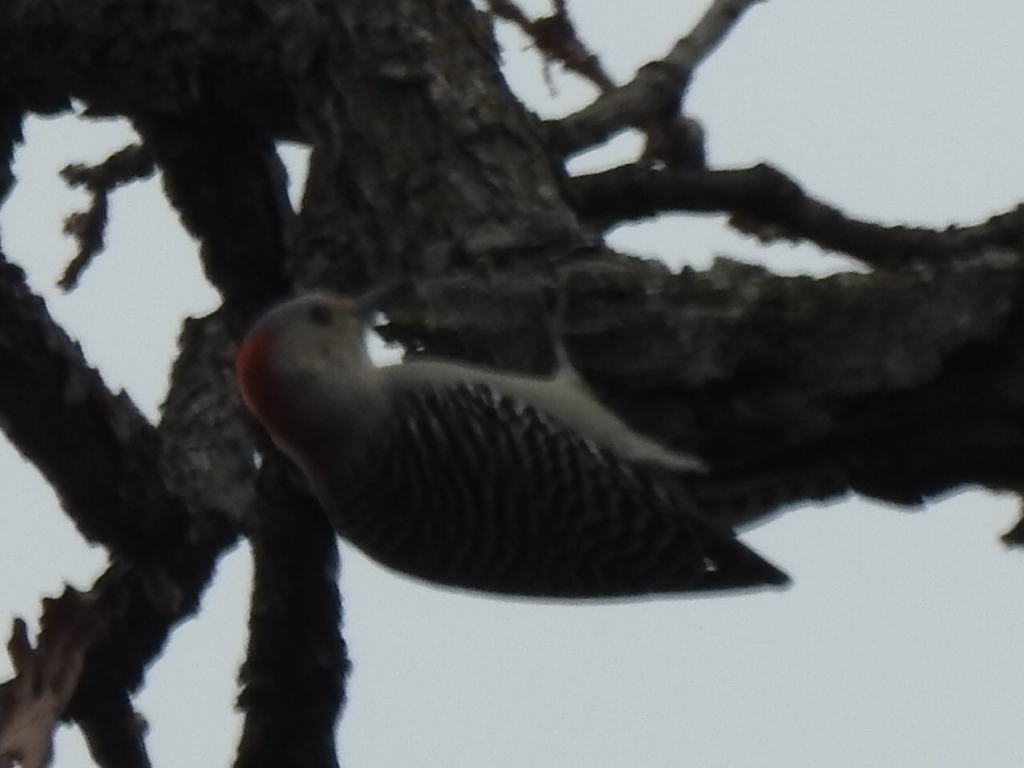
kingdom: Animalia
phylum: Chordata
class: Aves
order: Piciformes
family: Picidae
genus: Melanerpes
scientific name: Melanerpes carolinus
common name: Red-bellied woodpecker
